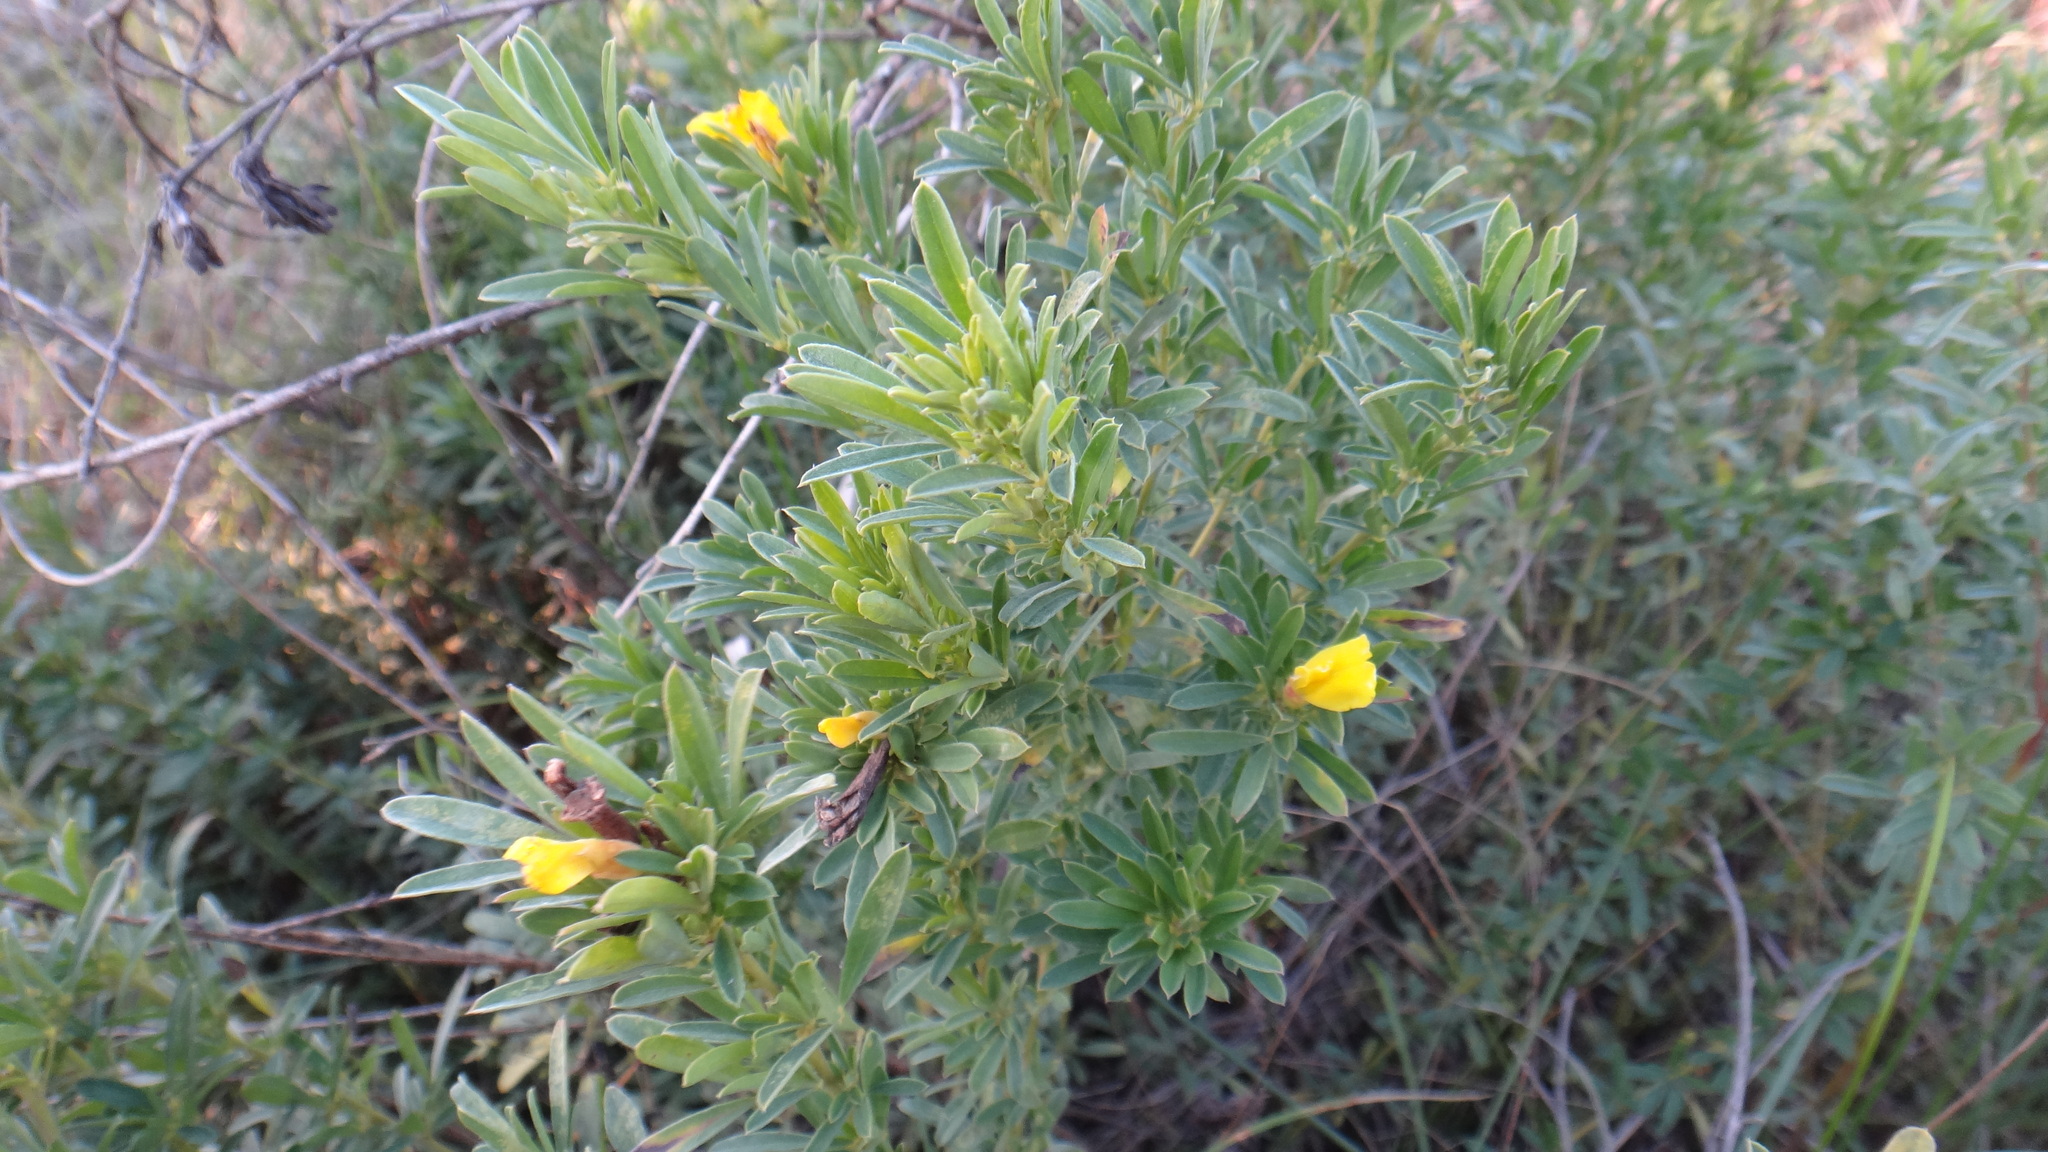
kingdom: Plantae
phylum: Tracheophyta
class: Magnoliopsida
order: Fabales
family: Fabaceae
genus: Chamaecytisus
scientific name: Chamaecytisus austriacus
